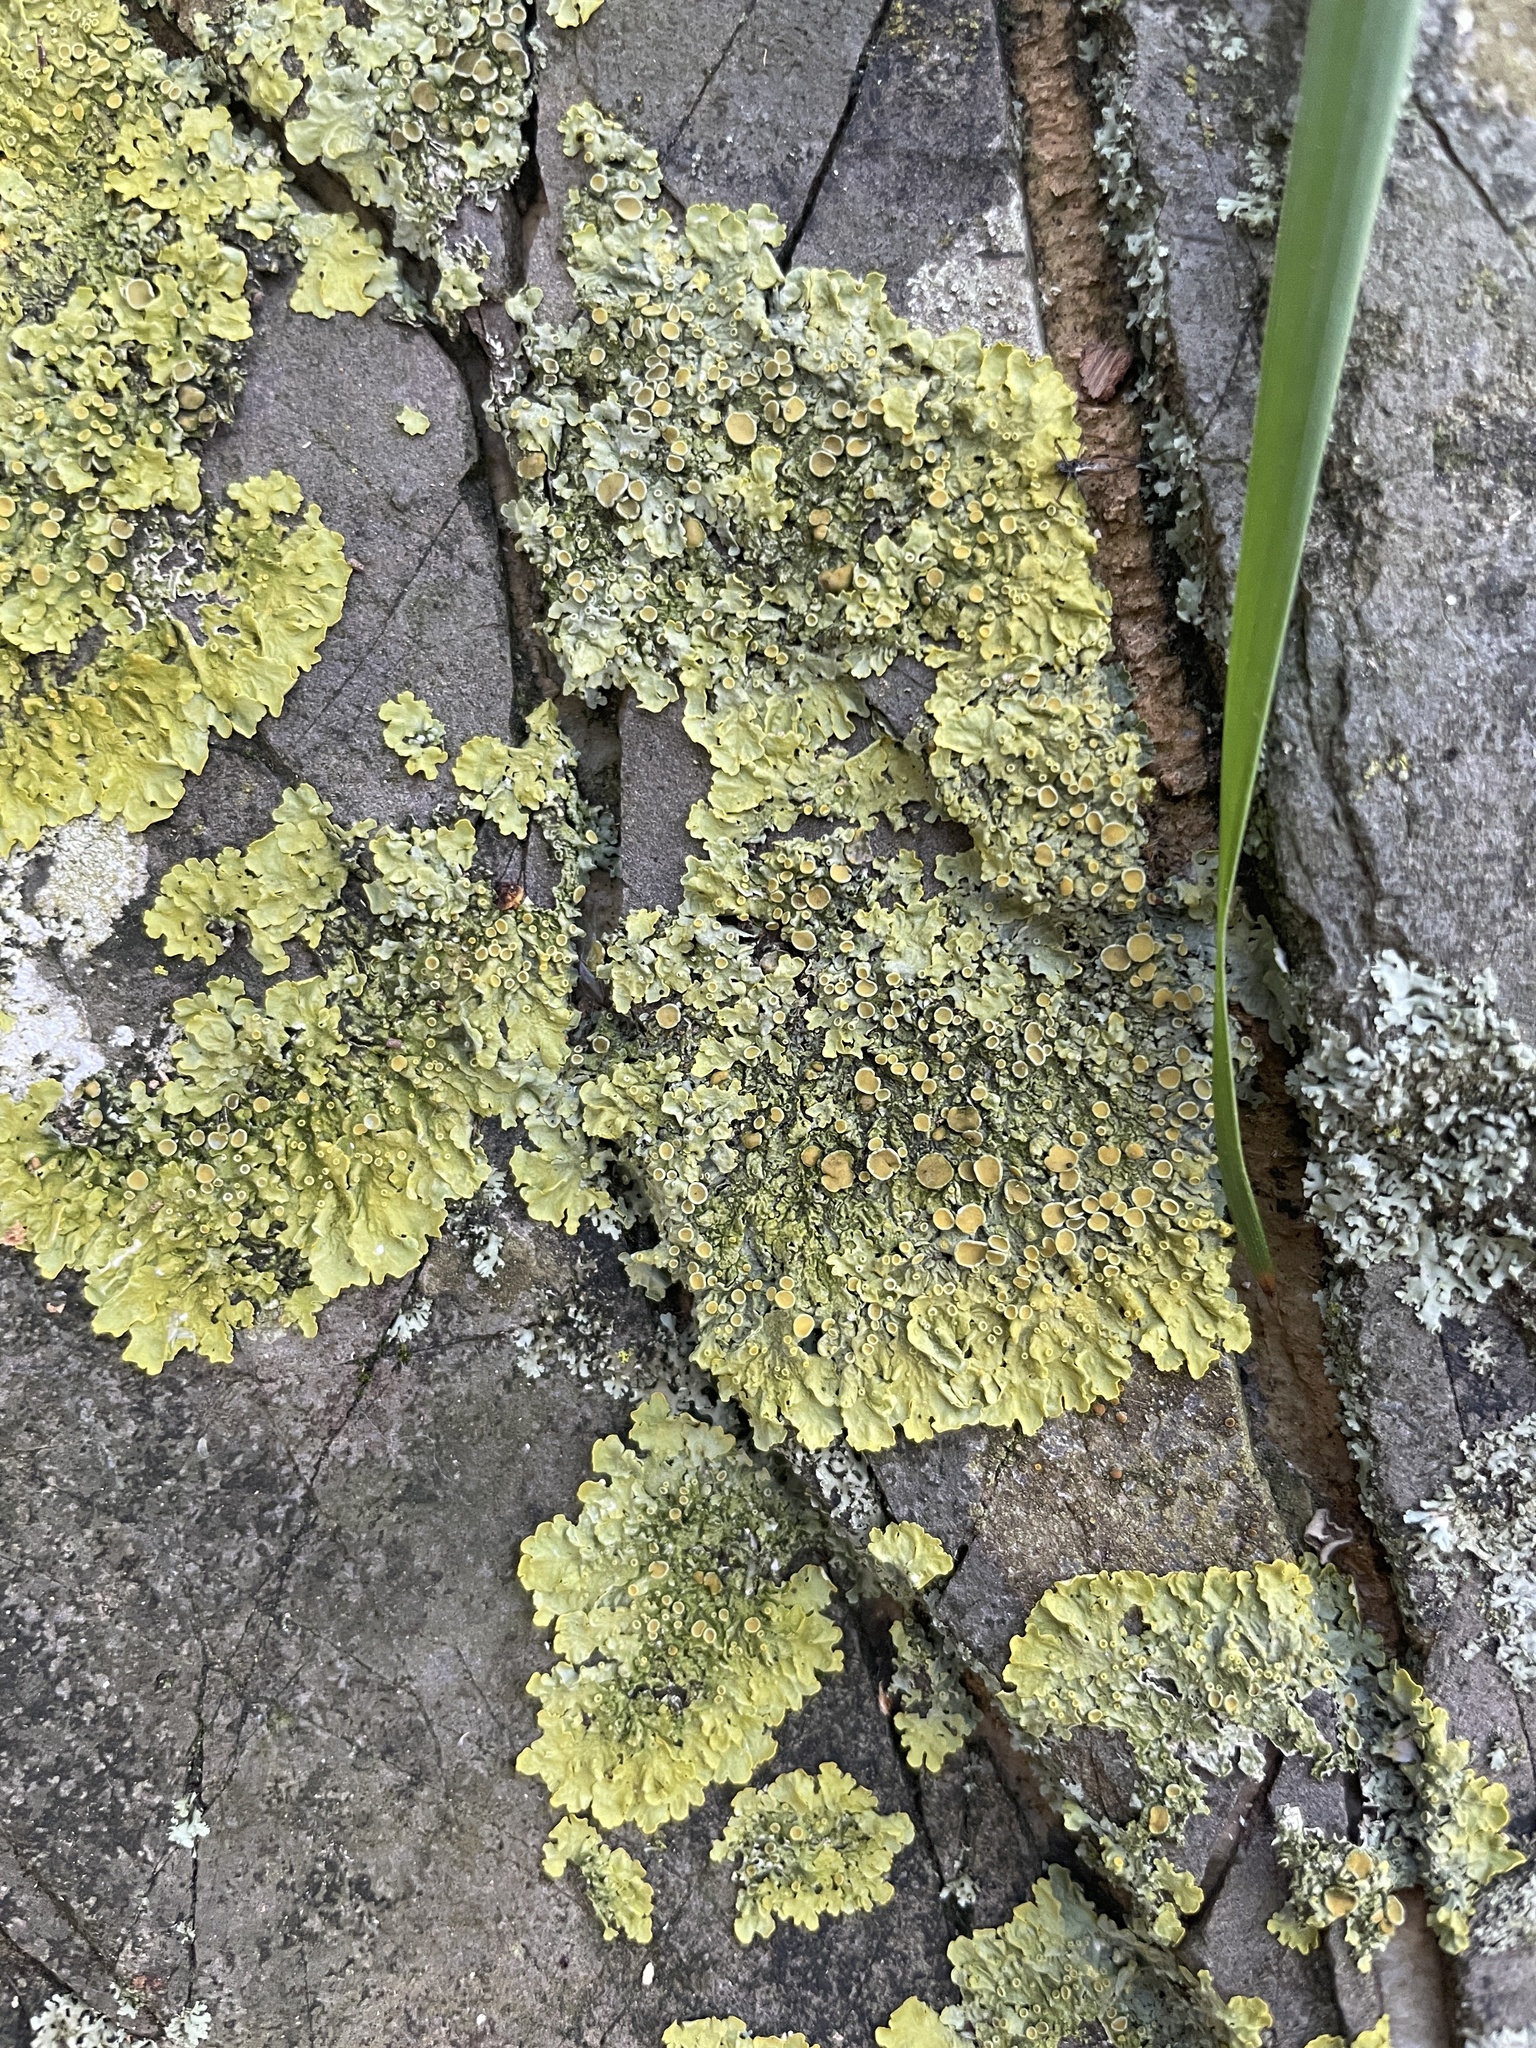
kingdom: Fungi
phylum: Ascomycota
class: Lecanoromycetes
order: Teloschistales
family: Teloschistaceae
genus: Xanthoria
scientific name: Xanthoria parietina
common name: Common orange lichen
